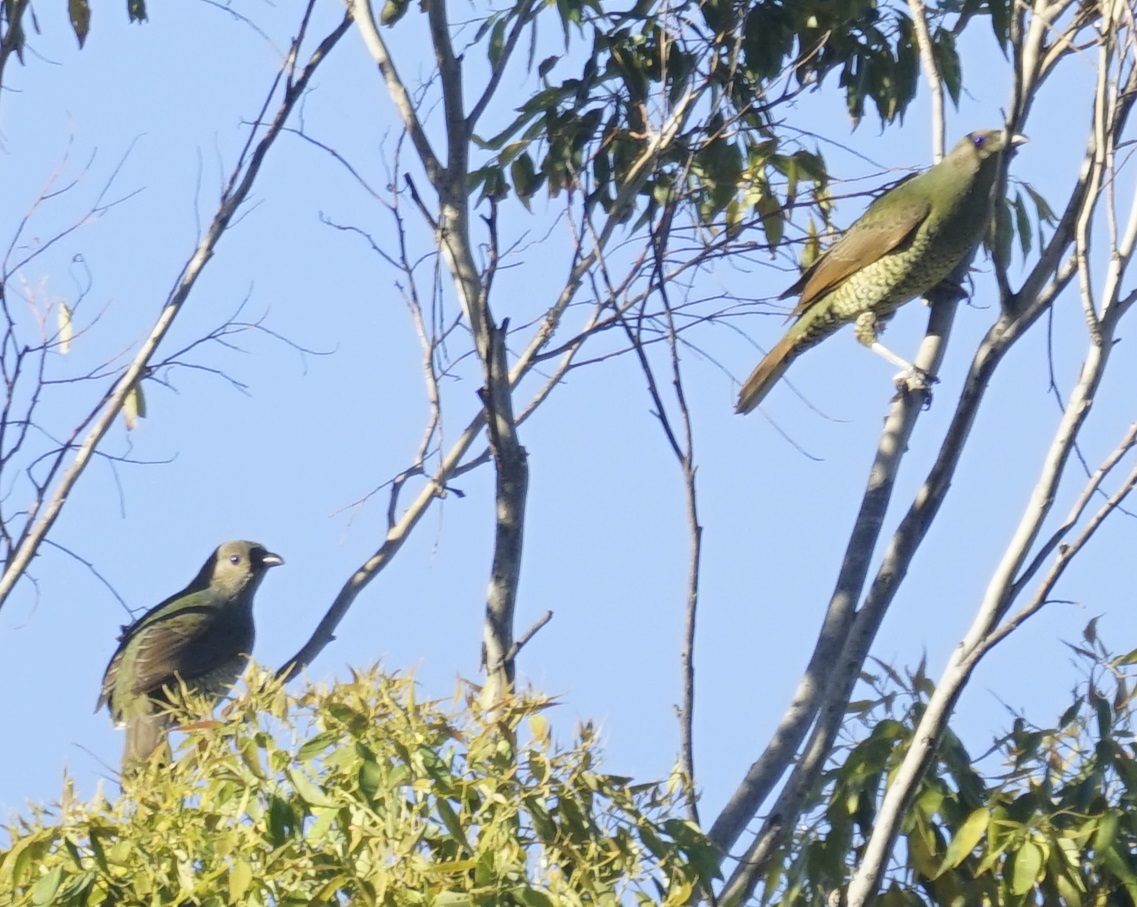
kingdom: Animalia
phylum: Chordata
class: Aves
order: Passeriformes
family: Ptilonorhynchidae
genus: Ptilonorhynchus
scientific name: Ptilonorhynchus violaceus
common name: Satin bowerbird
